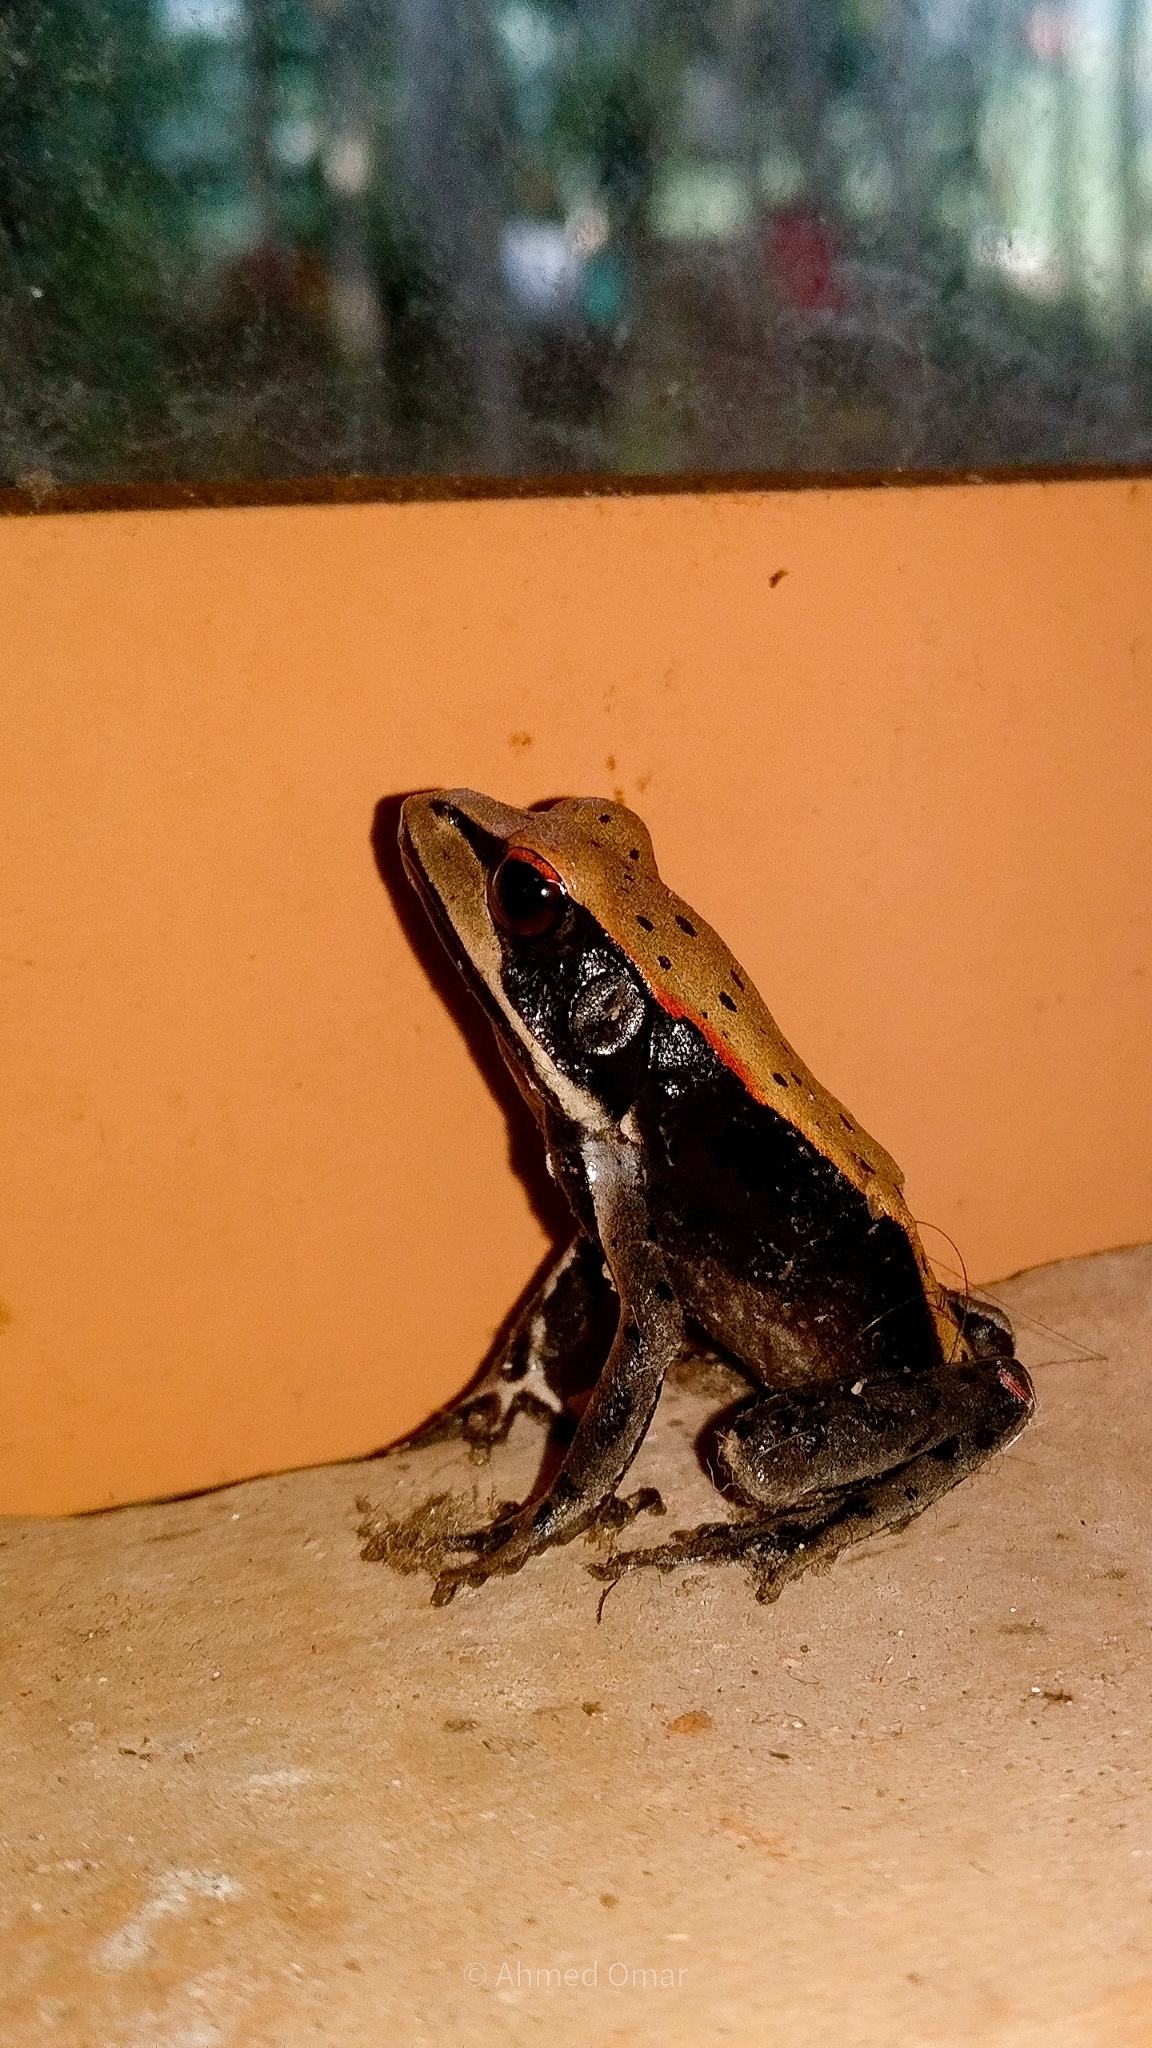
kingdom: Animalia
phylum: Chordata
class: Amphibia
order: Anura
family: Ranidae
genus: Clinotarsus
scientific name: Clinotarsus curtipes
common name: Bicoloured frog
